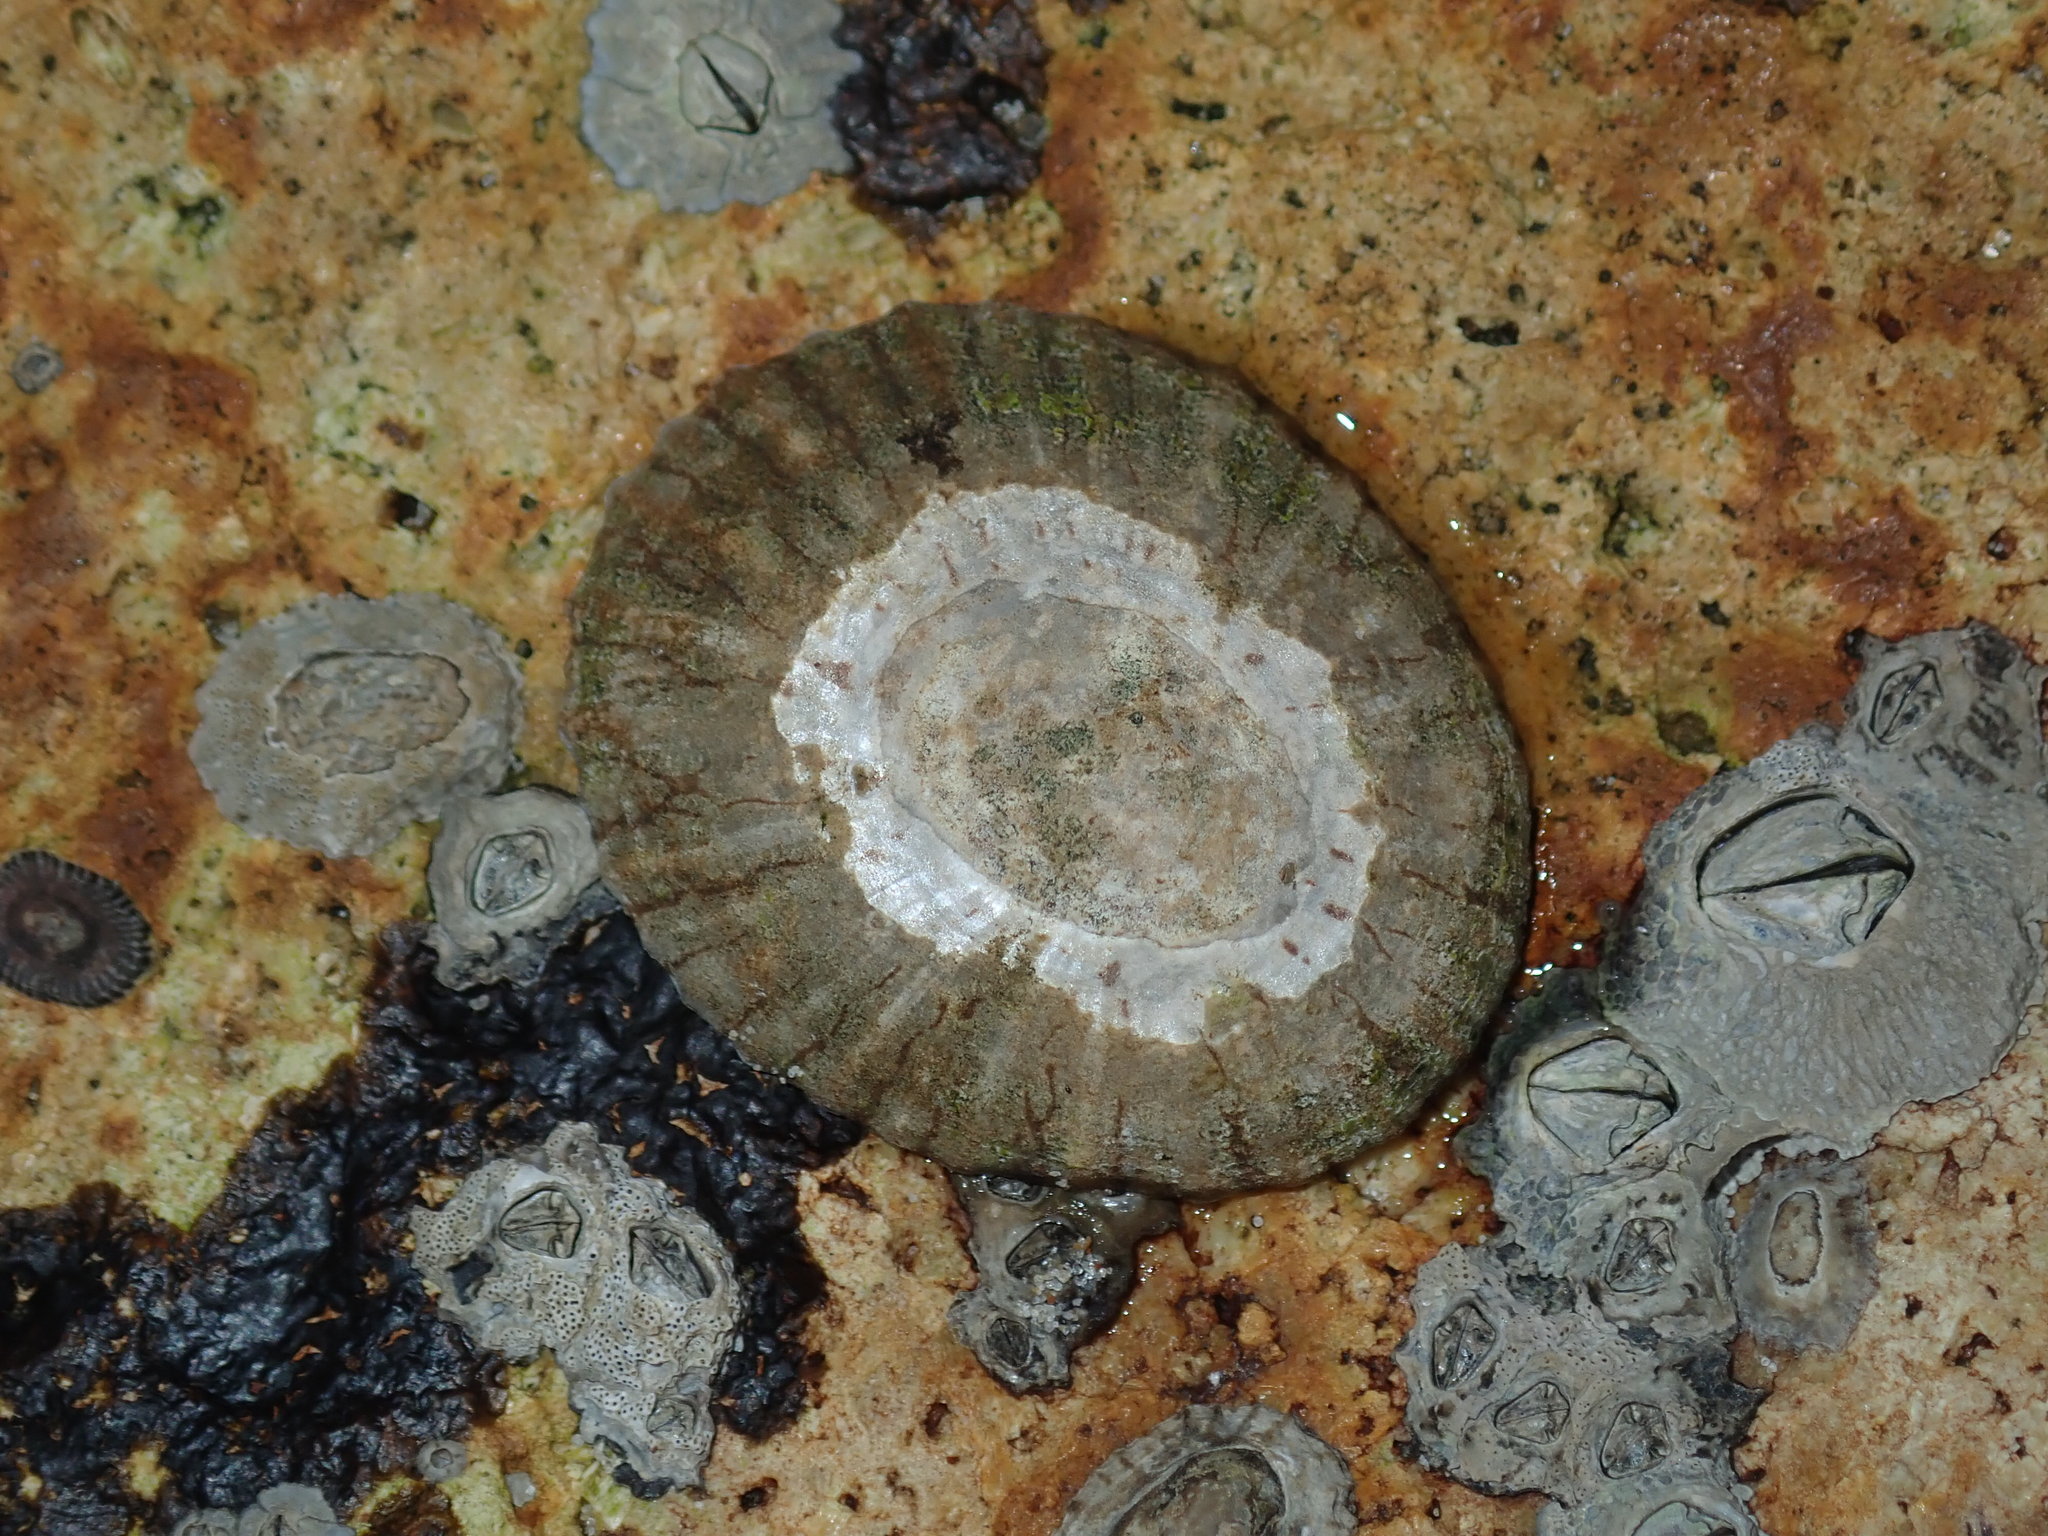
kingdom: Animalia
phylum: Mollusca
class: Gastropoda
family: Nacellidae
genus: Cellana
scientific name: Cellana tramoserica
